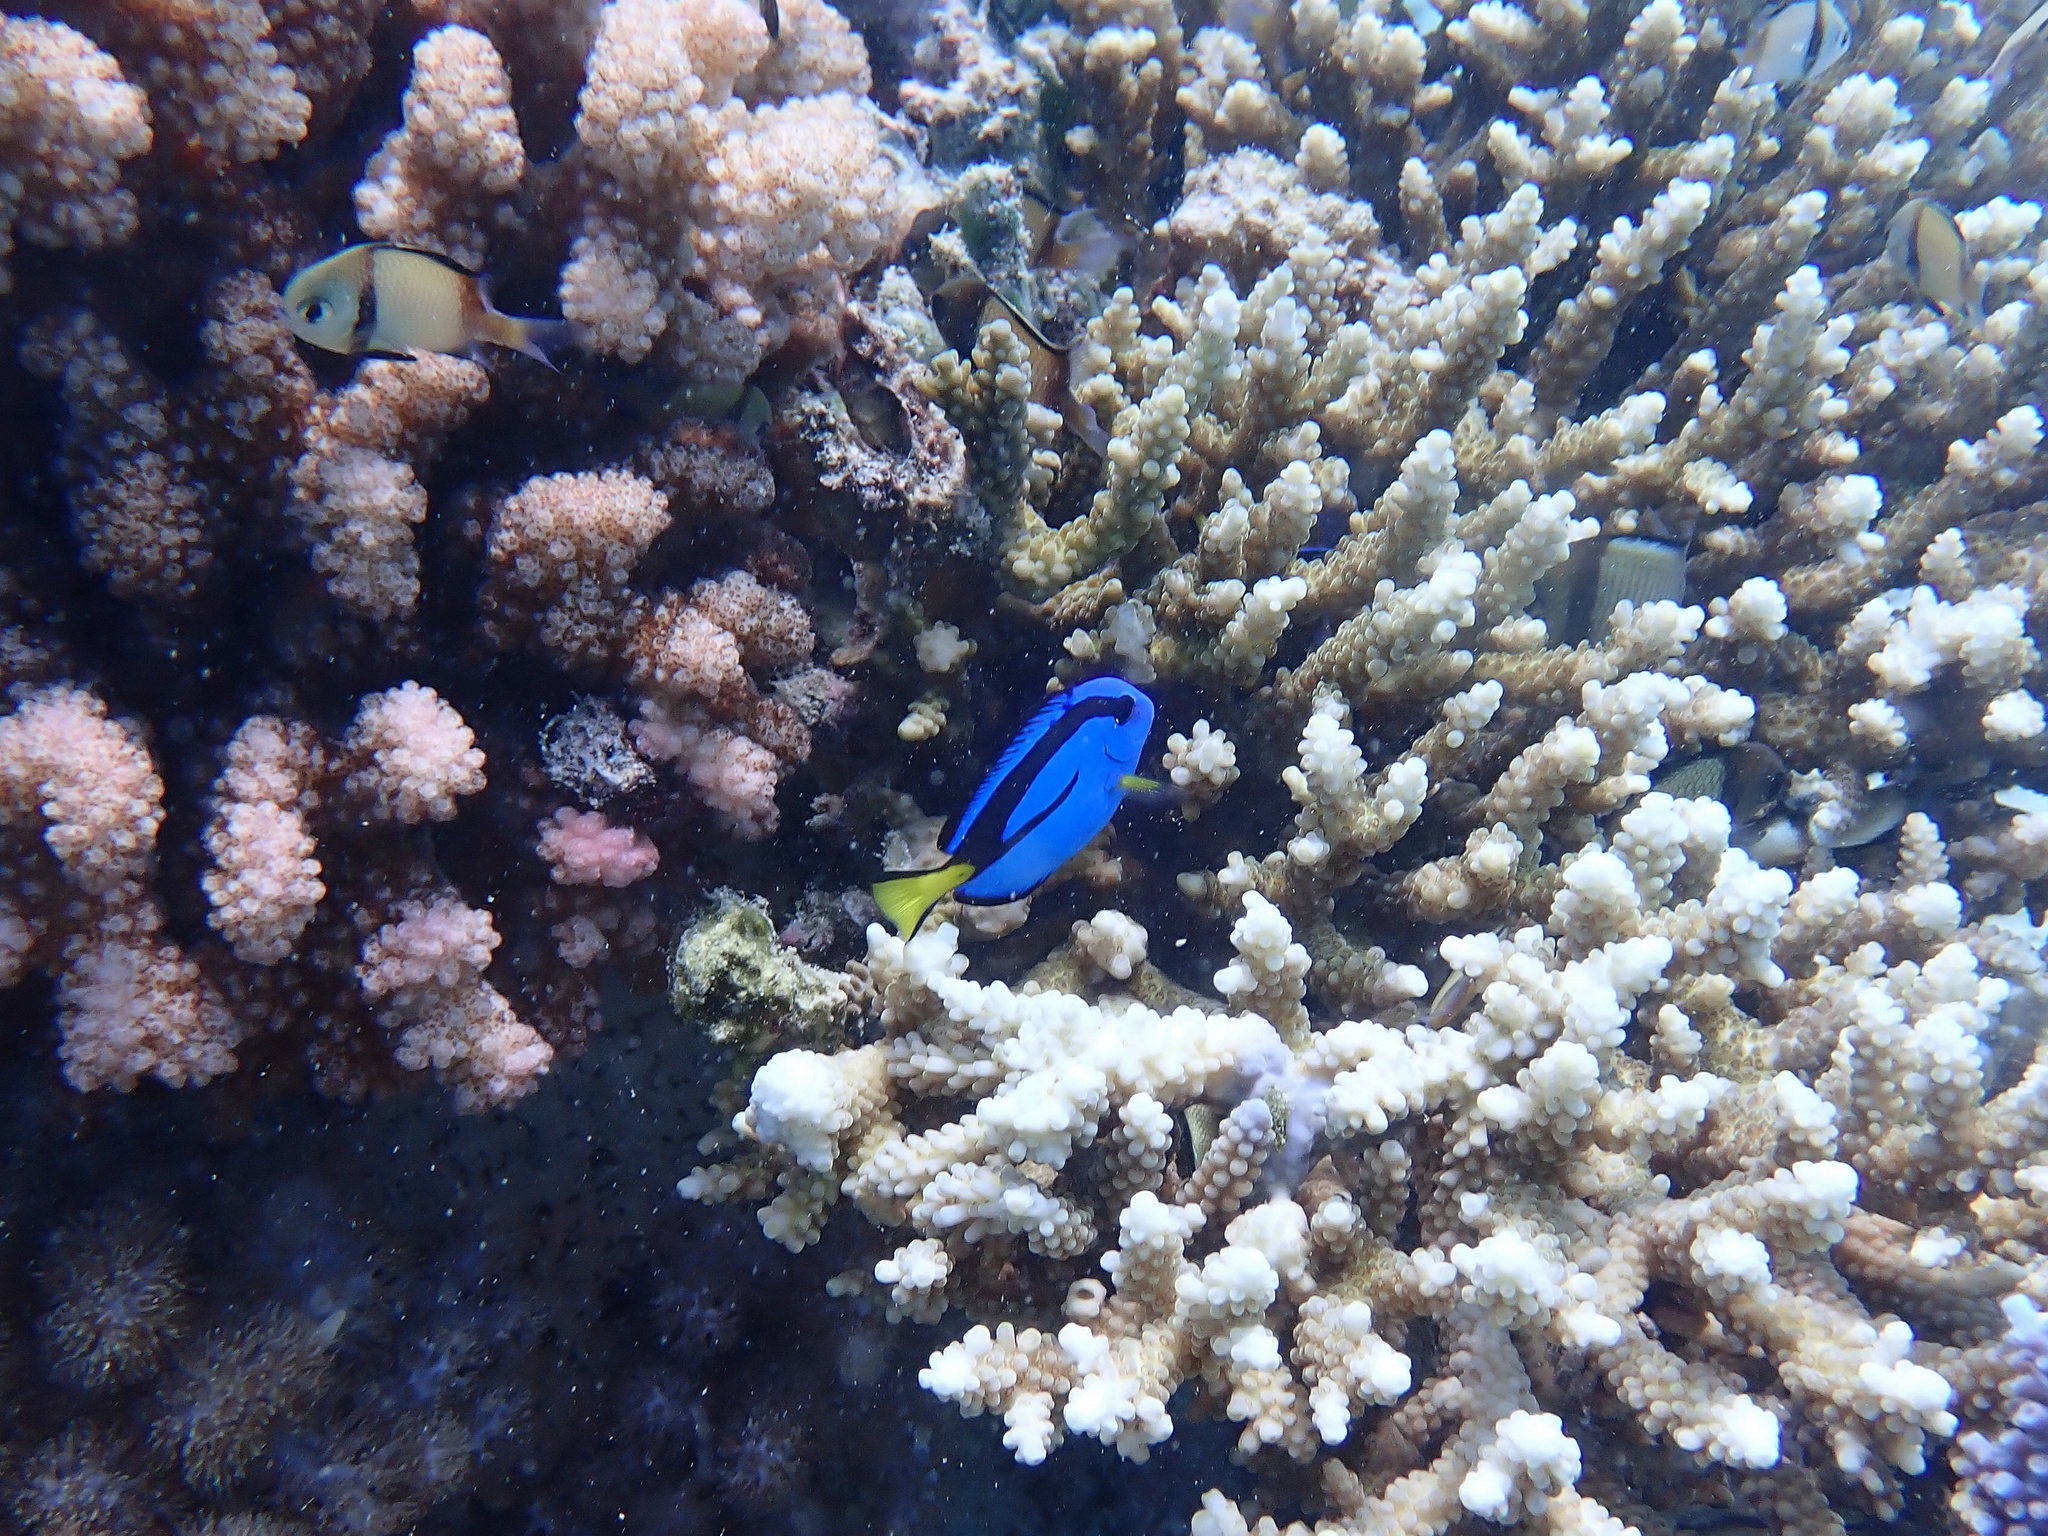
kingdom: Animalia
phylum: Chordata
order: Perciformes
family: Acanthuridae
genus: Paracanthurus
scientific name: Paracanthurus hepatus
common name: Palette surgeonfish
